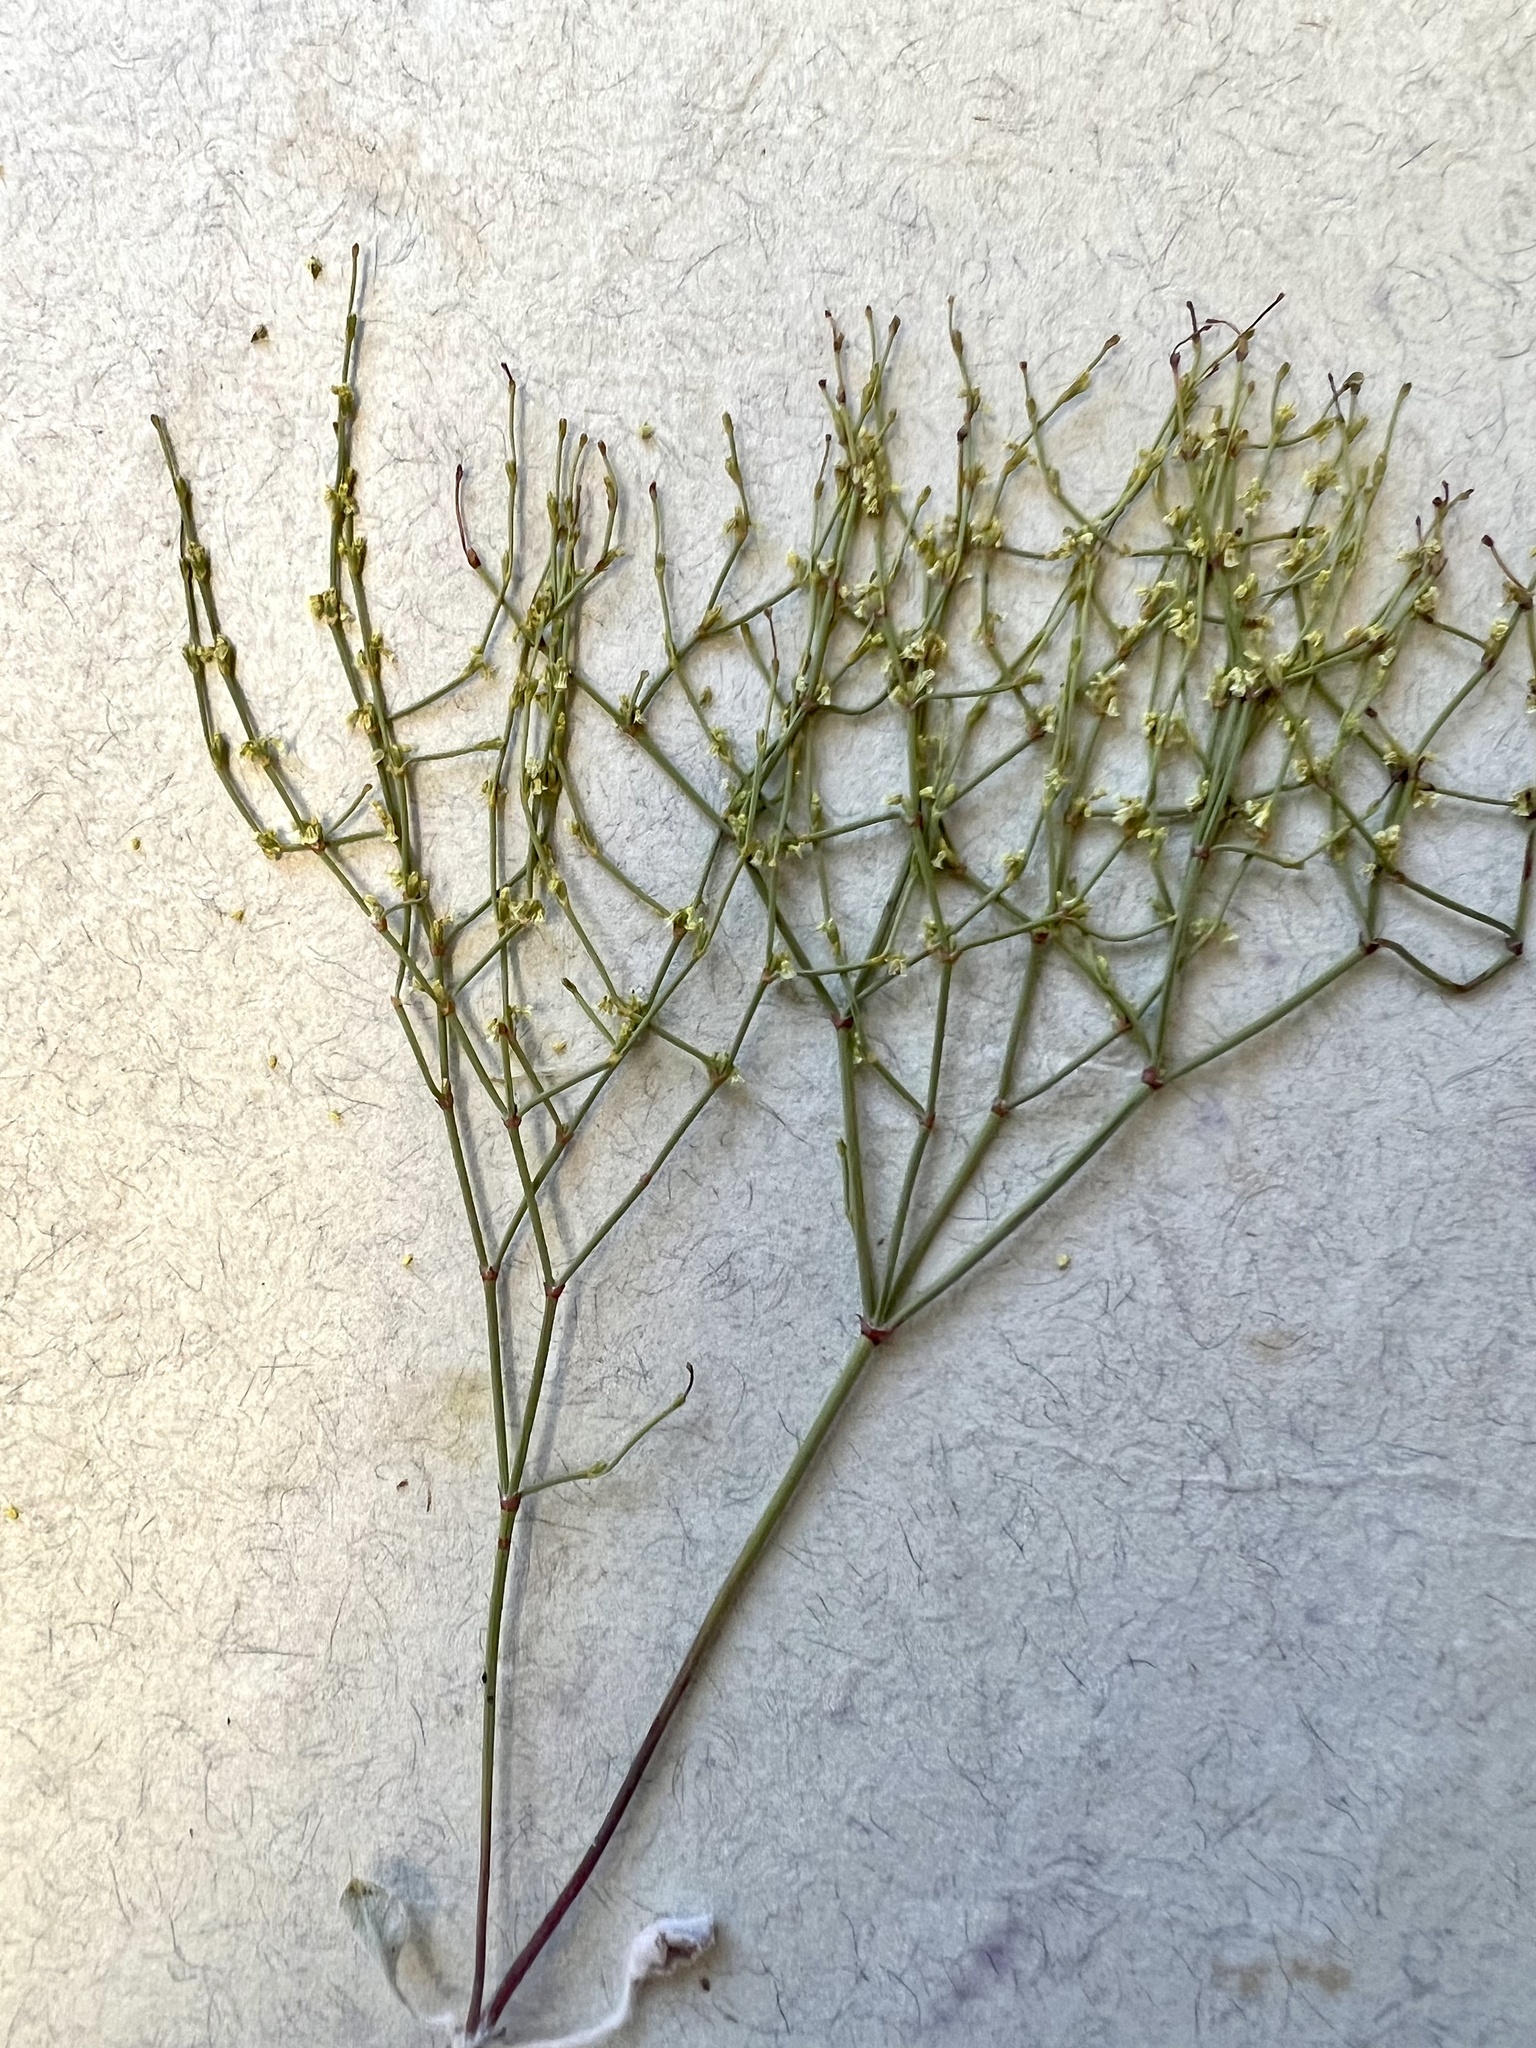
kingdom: Plantae
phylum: Tracheophyta
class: Magnoliopsida
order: Caryophyllales
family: Polygonaceae
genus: Eriogonum
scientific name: Eriogonum brachyanthum
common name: Short-flower wild buckwheat
